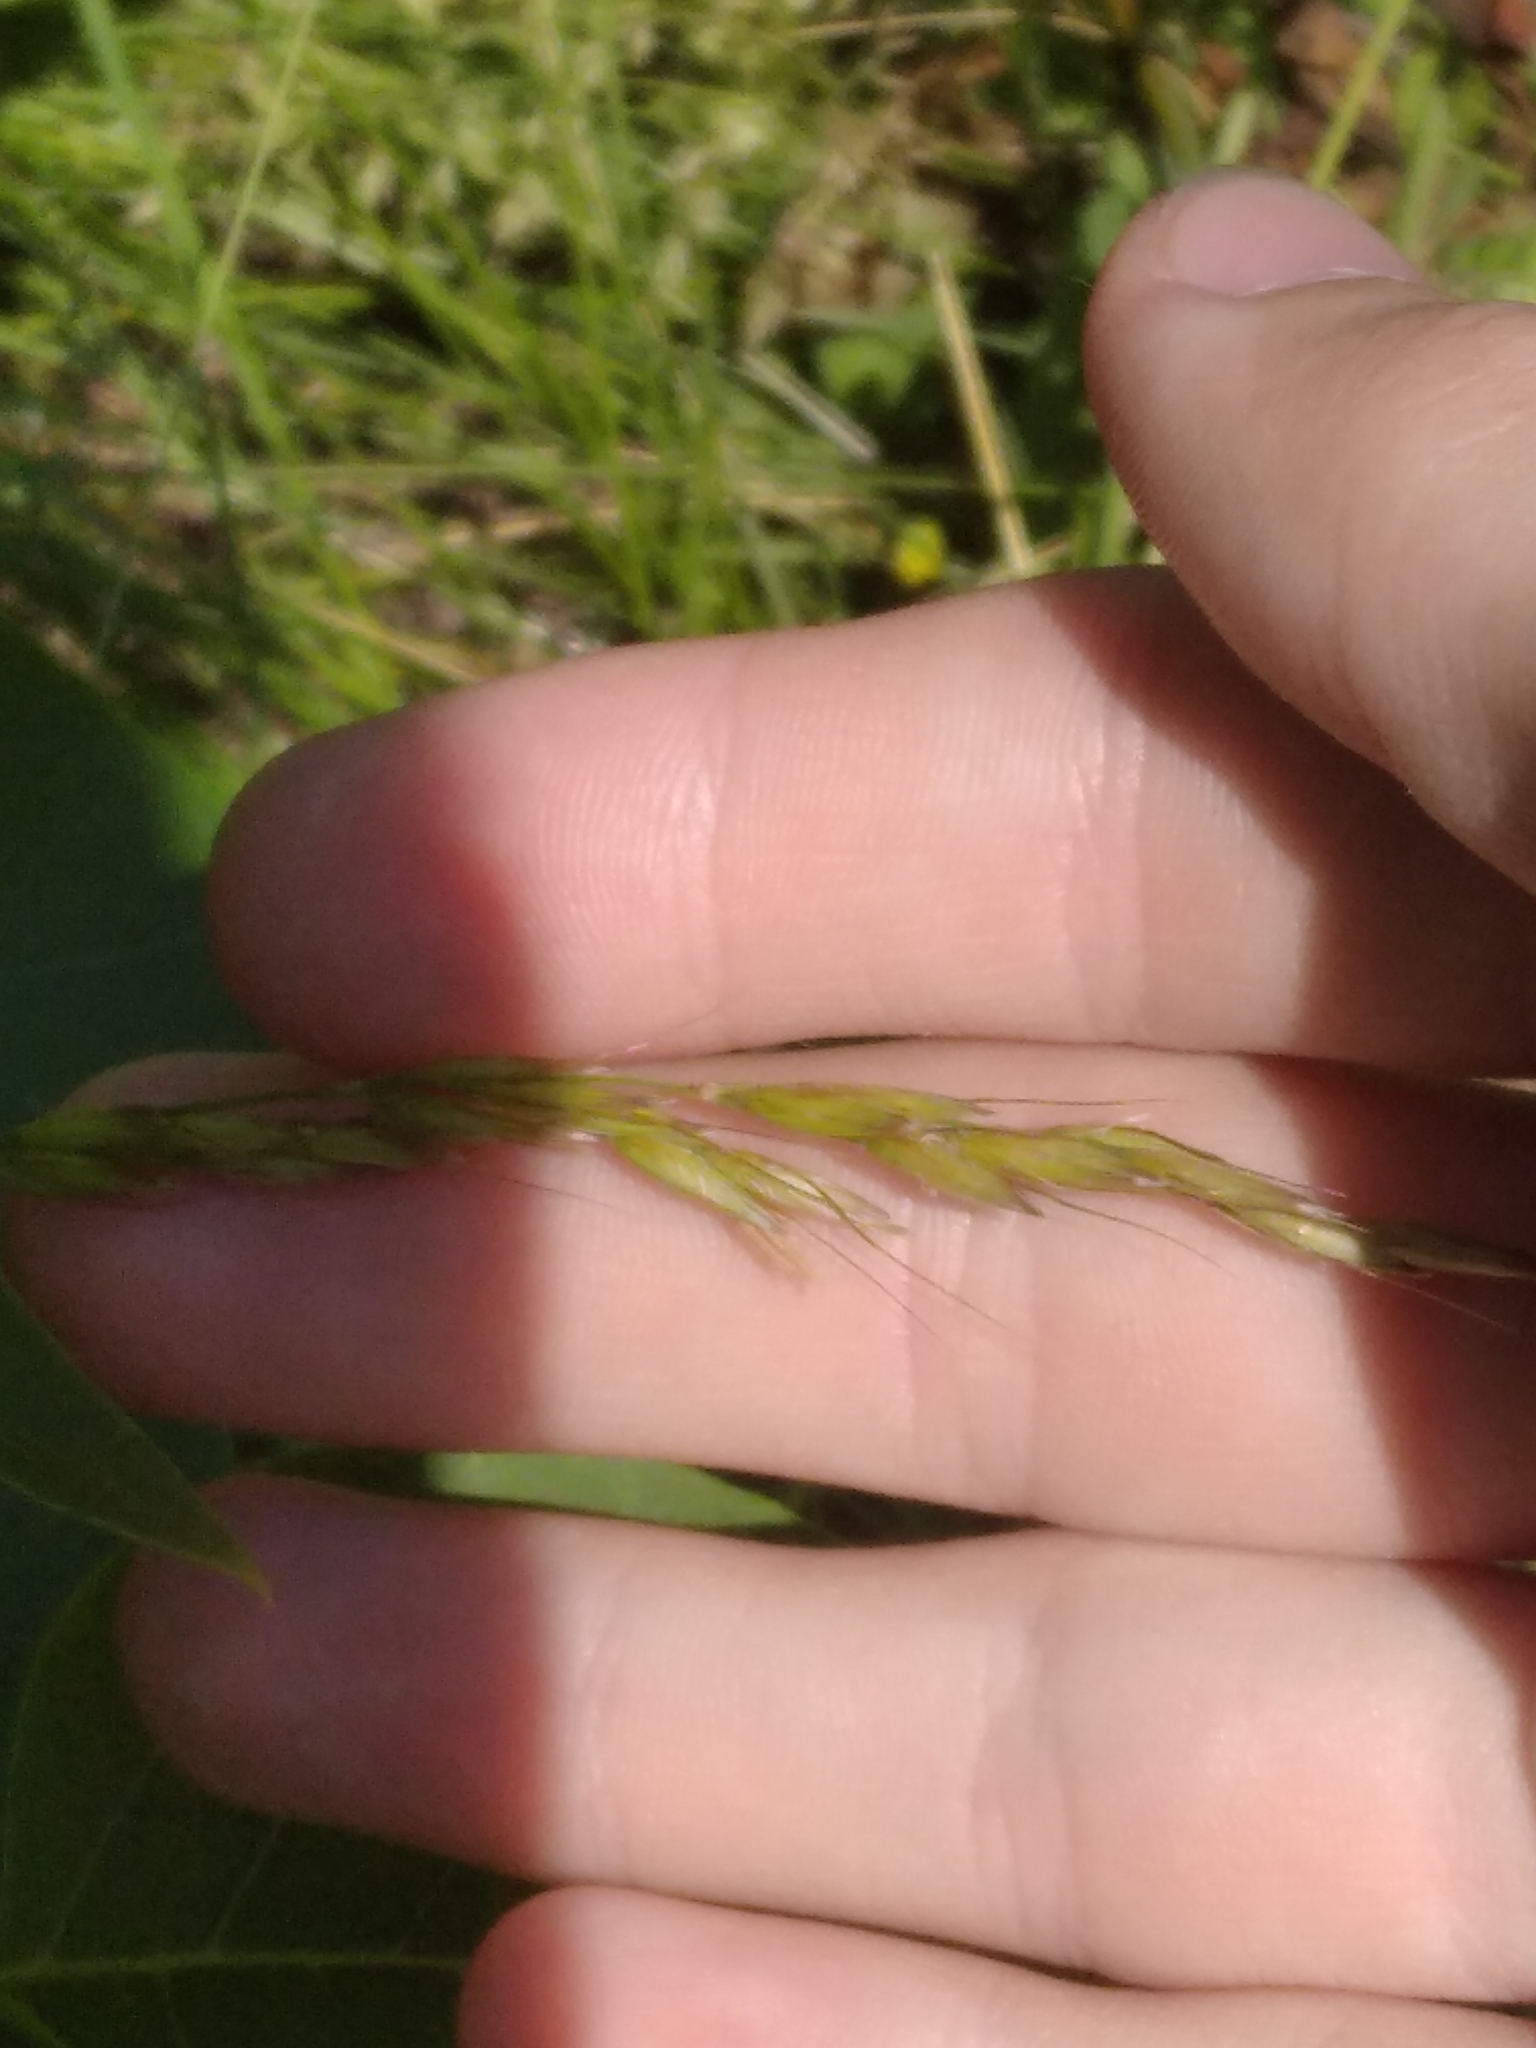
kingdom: Plantae
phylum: Tracheophyta
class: Liliopsida
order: Poales
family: Poaceae
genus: Arrhenatherum
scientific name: Arrhenatherum elatius
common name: Tall oatgrass
